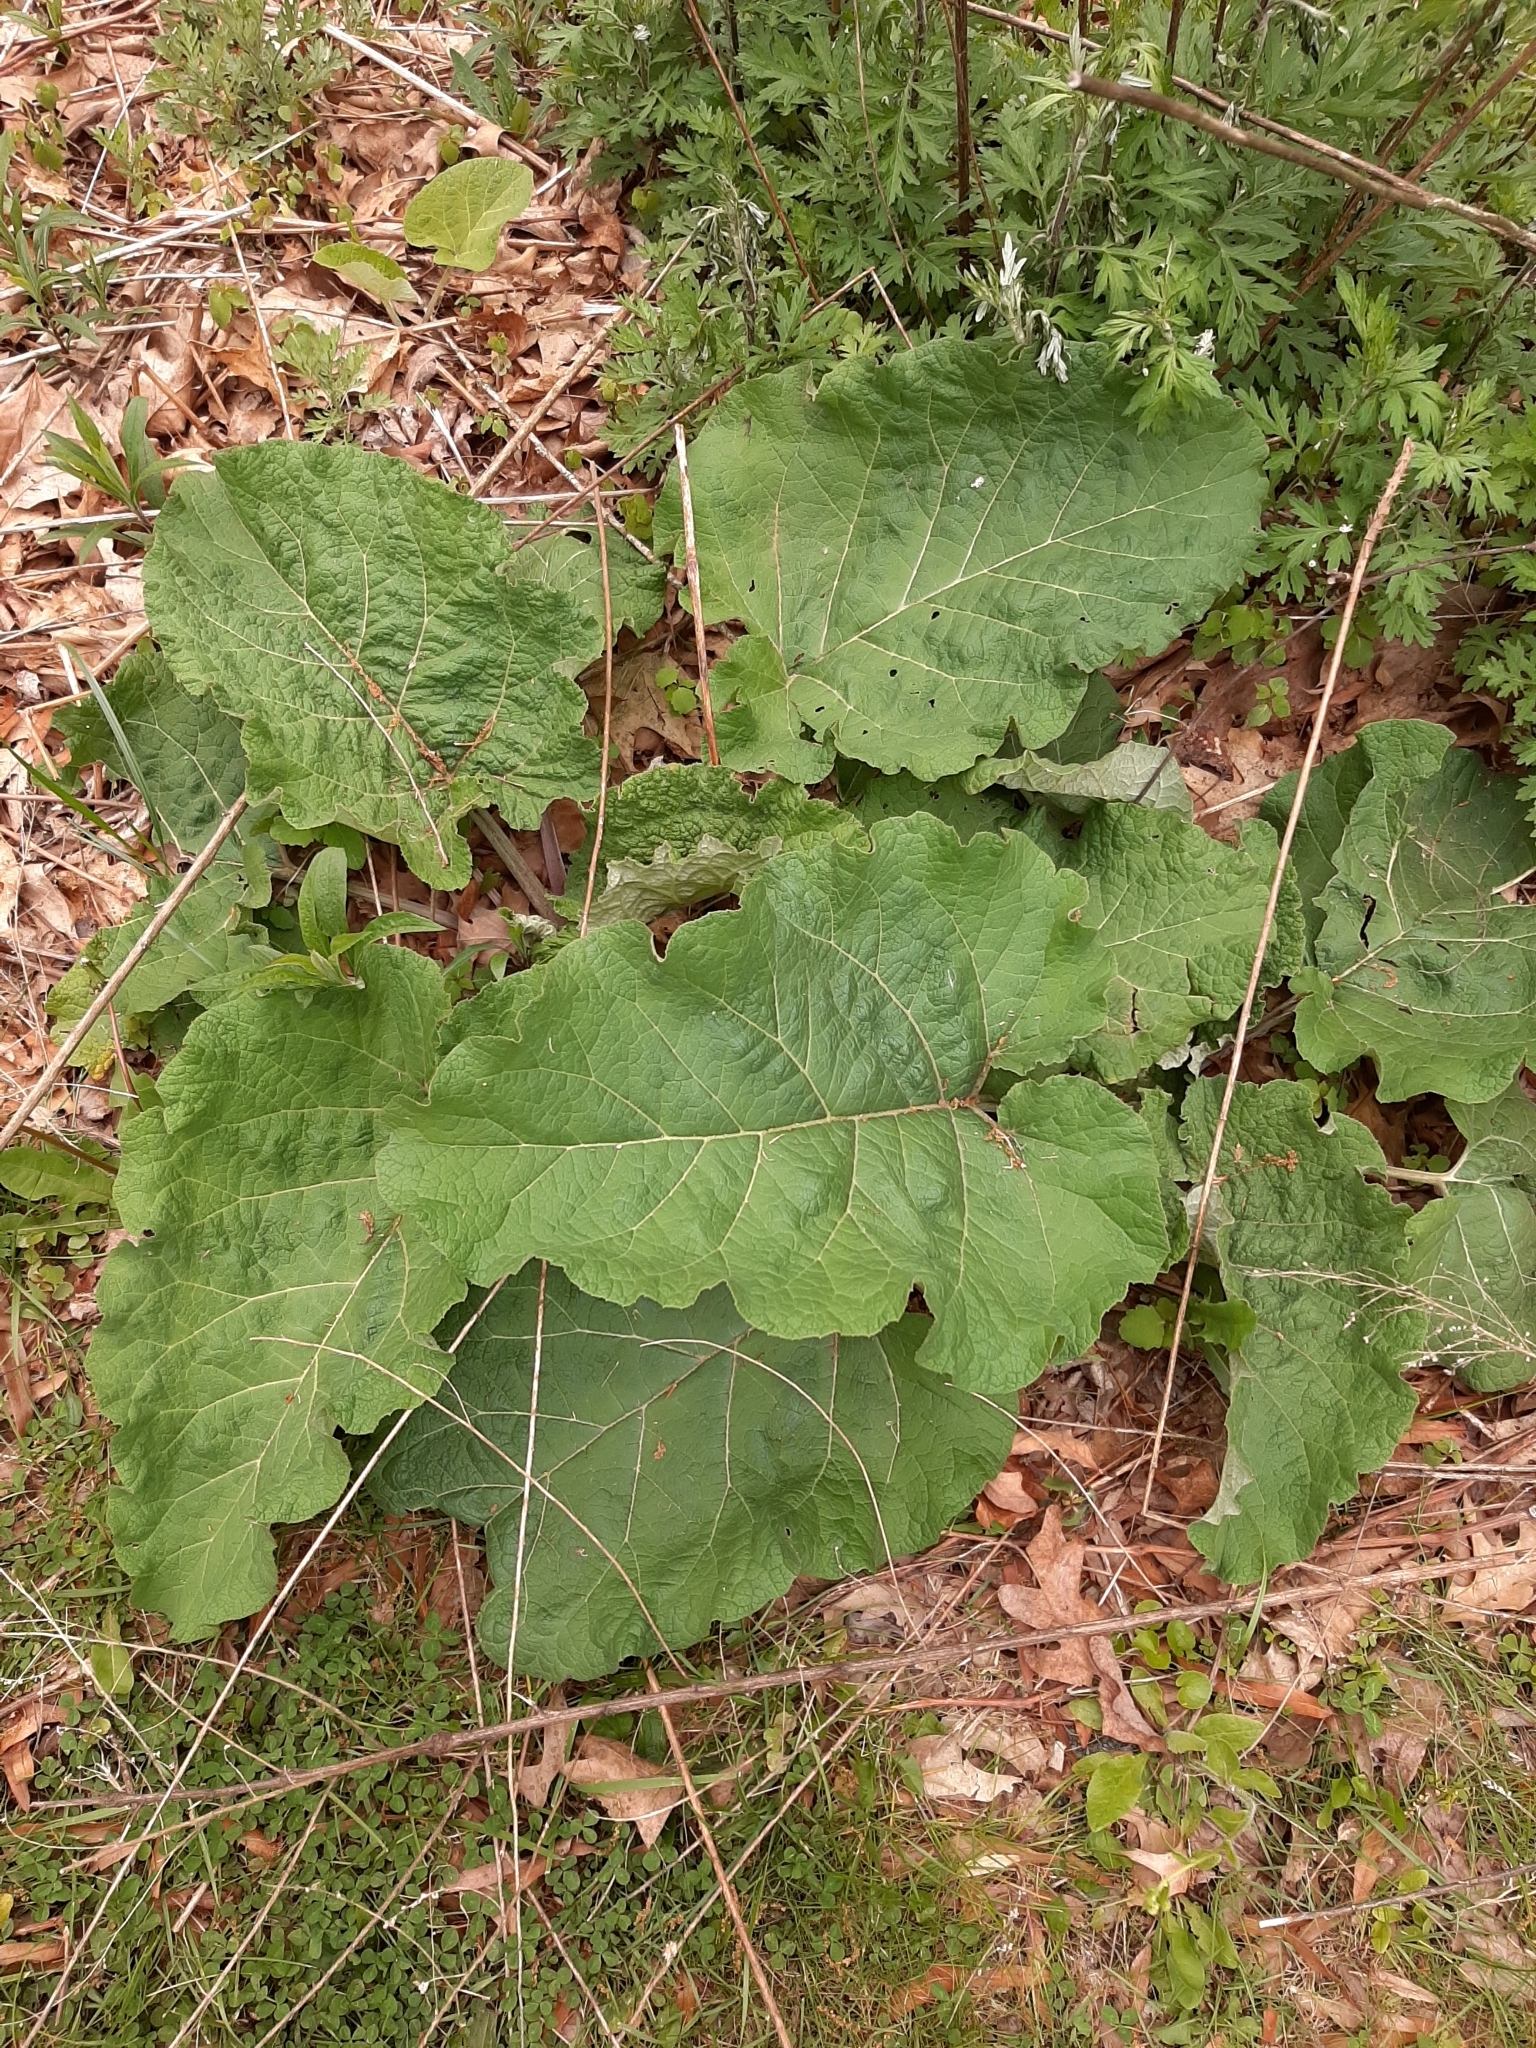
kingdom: Plantae
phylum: Tracheophyta
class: Magnoliopsida
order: Asterales
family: Asteraceae
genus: Arctium
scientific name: Arctium
